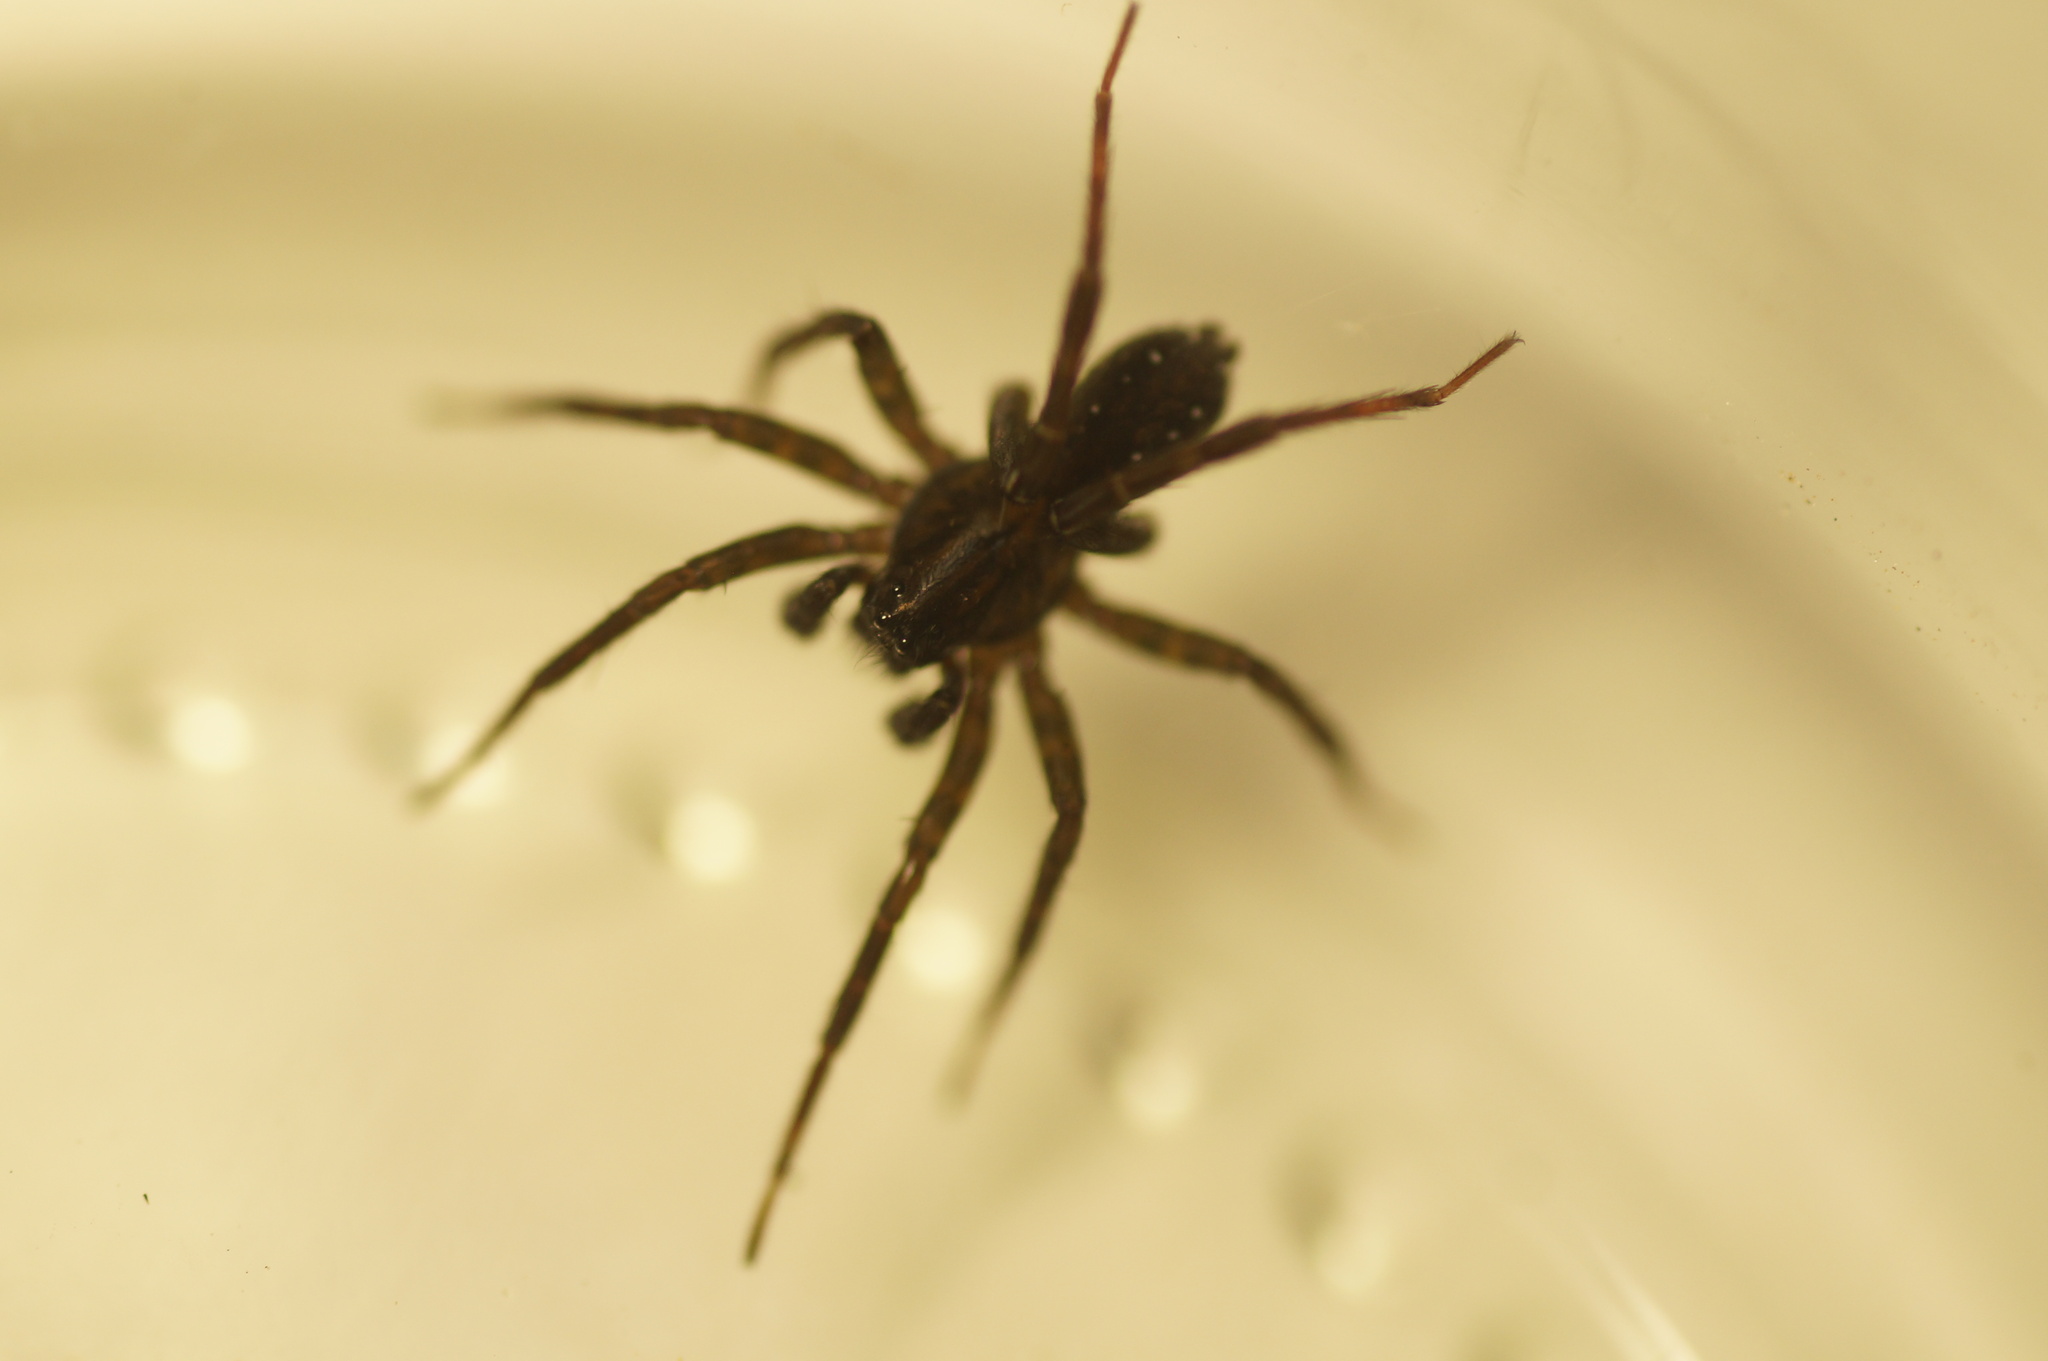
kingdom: Animalia
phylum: Arthropoda
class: Arachnida
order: Araneae
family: Lycosidae
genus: Piratula
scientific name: Piratula hygrophila
